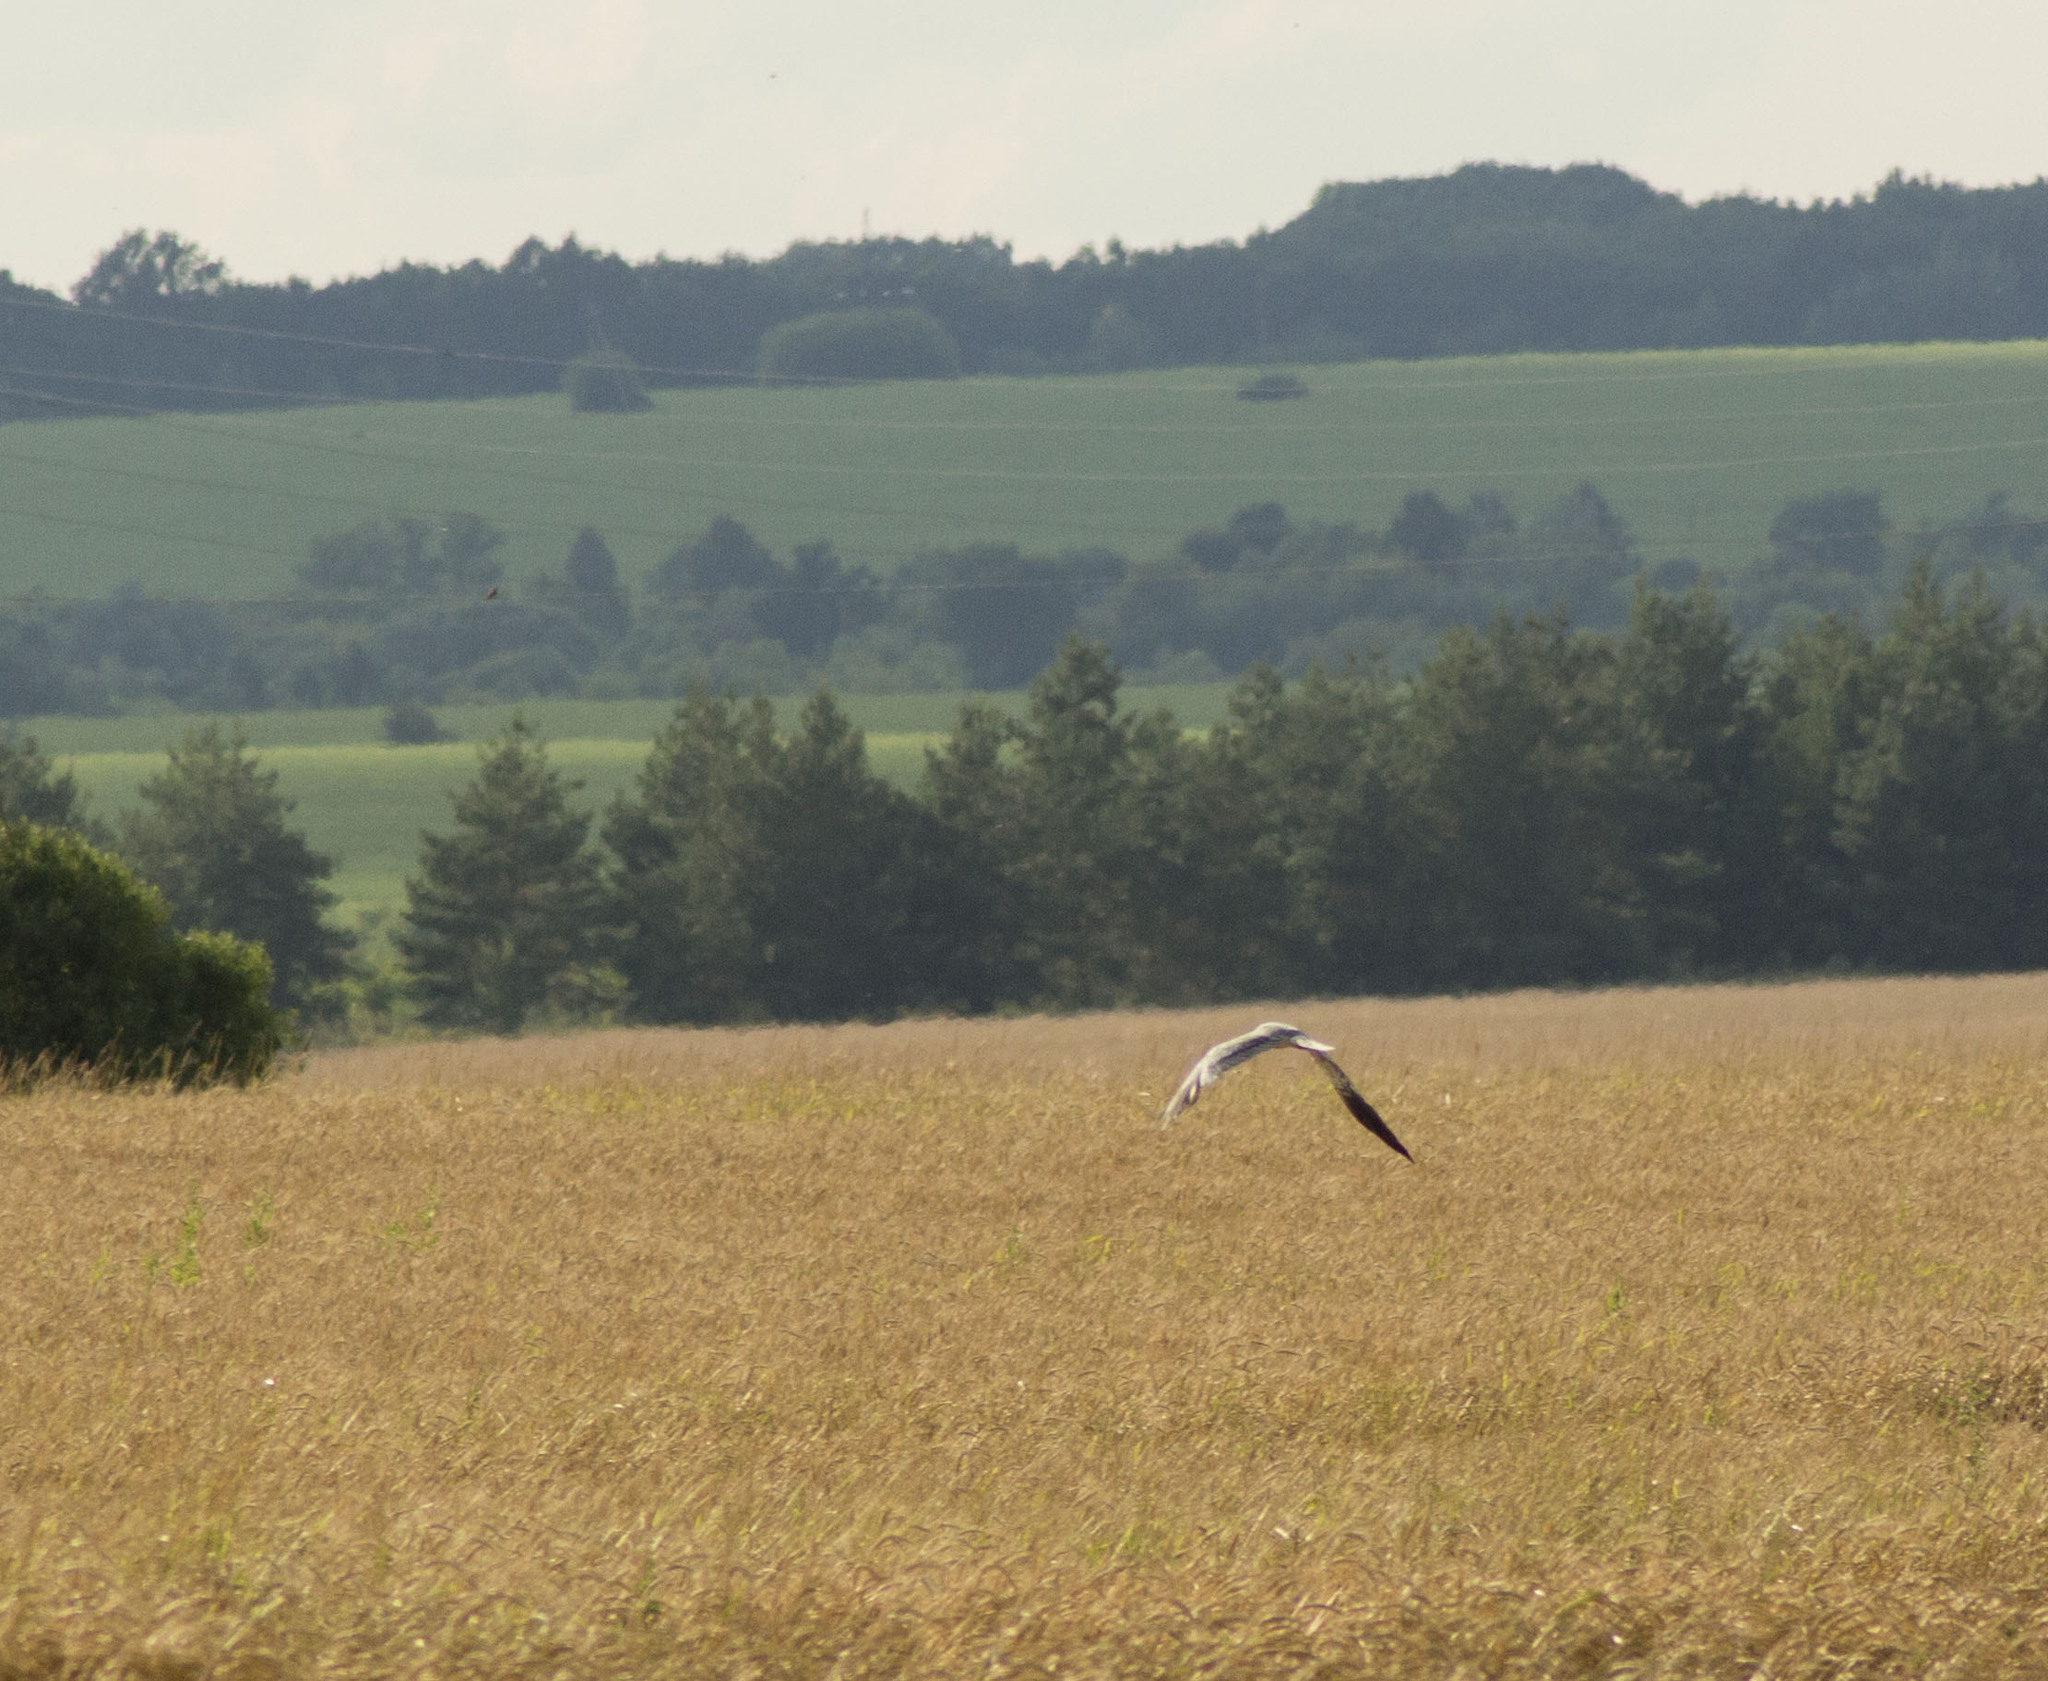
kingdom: Animalia
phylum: Chordata
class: Aves
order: Accipitriformes
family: Accipitridae
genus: Circus
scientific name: Circus pygargus
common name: Montagu's harrier
